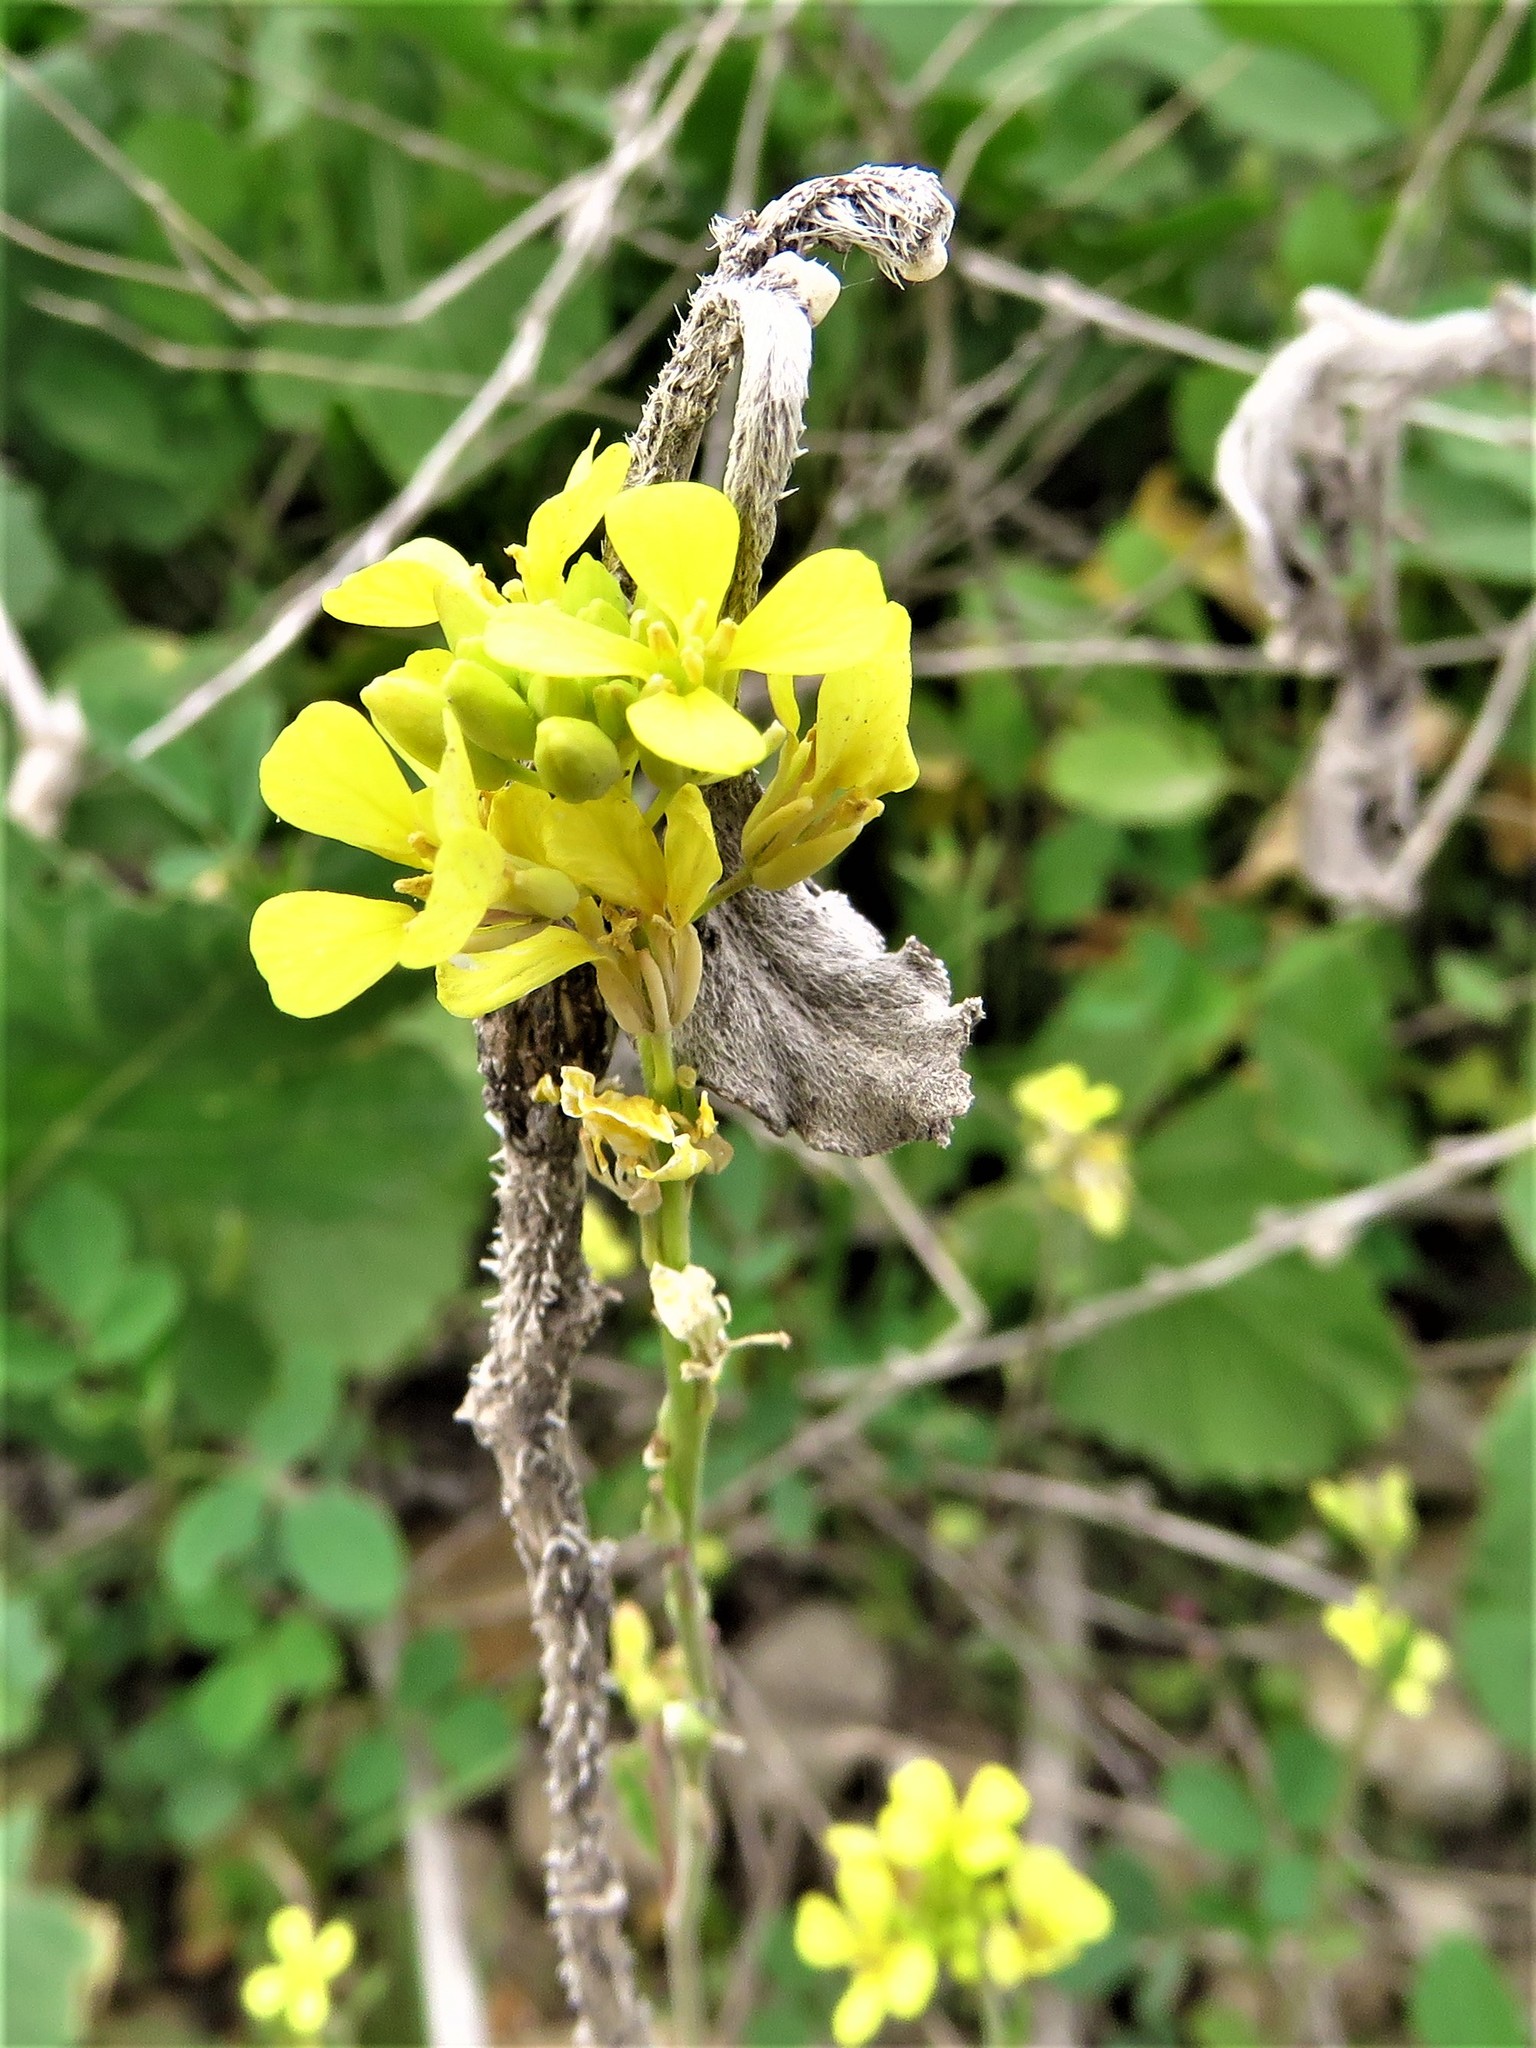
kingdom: Plantae
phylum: Tracheophyta
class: Magnoliopsida
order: Brassicales
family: Brassicaceae
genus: Rapistrum
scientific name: Rapistrum rugosum
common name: Annual bastardcabbage
